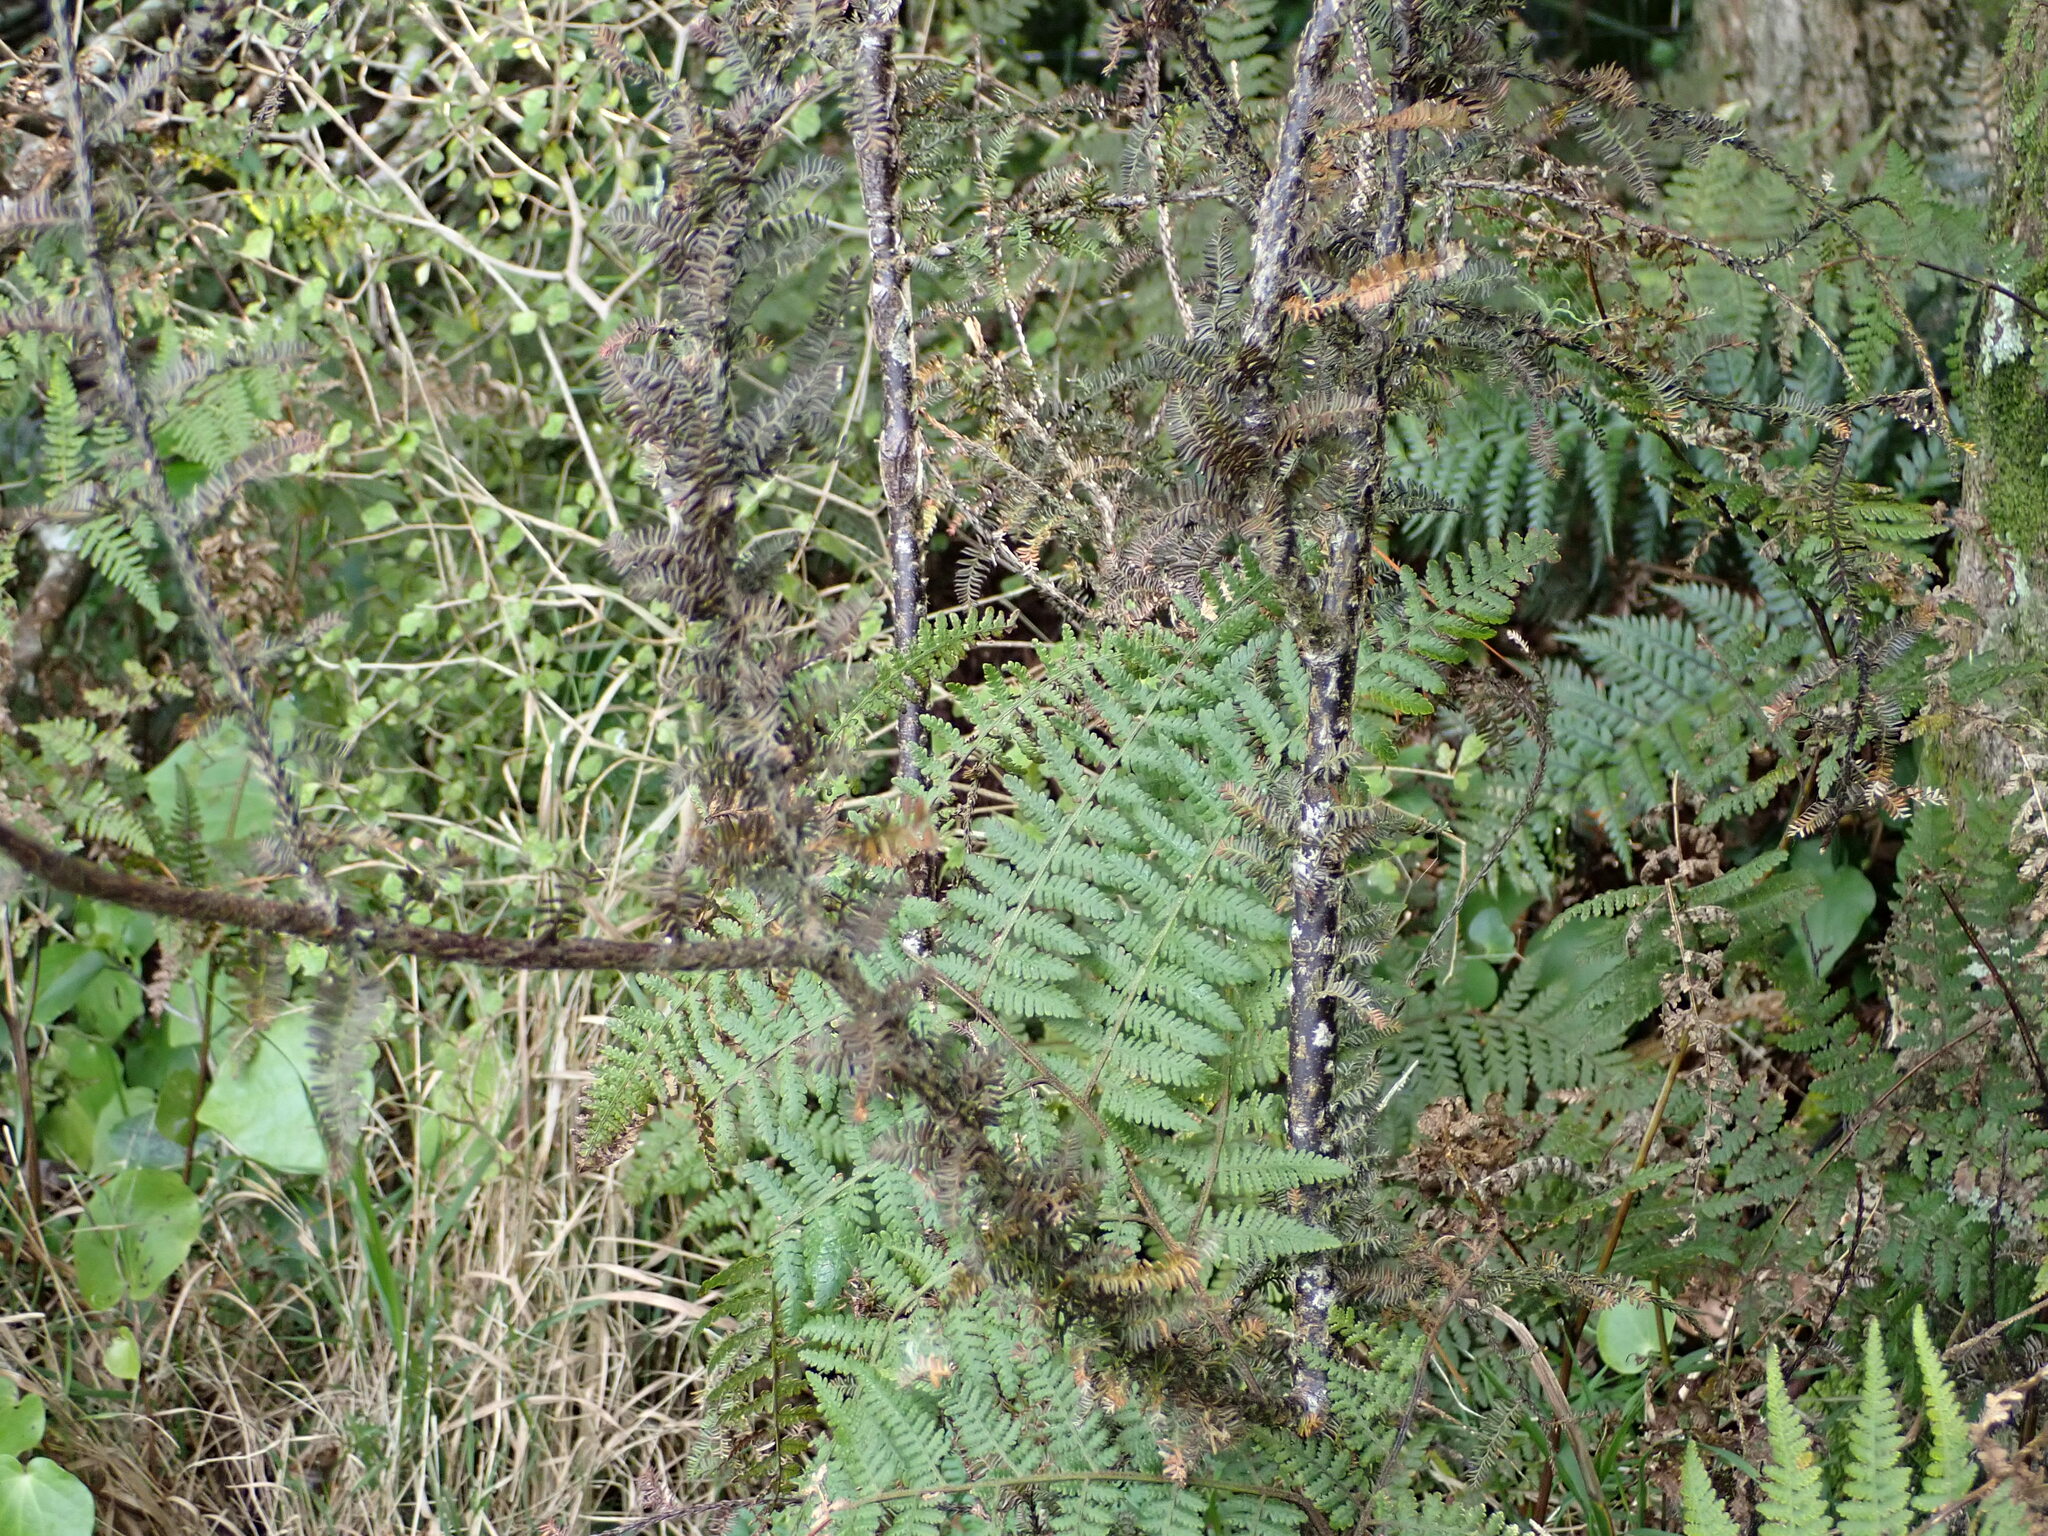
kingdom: Plantae
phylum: Tracheophyta
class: Pinopsida
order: Pinales
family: Podocarpaceae
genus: Dacrycarpus
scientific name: Dacrycarpus dacrydioides
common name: White pine
